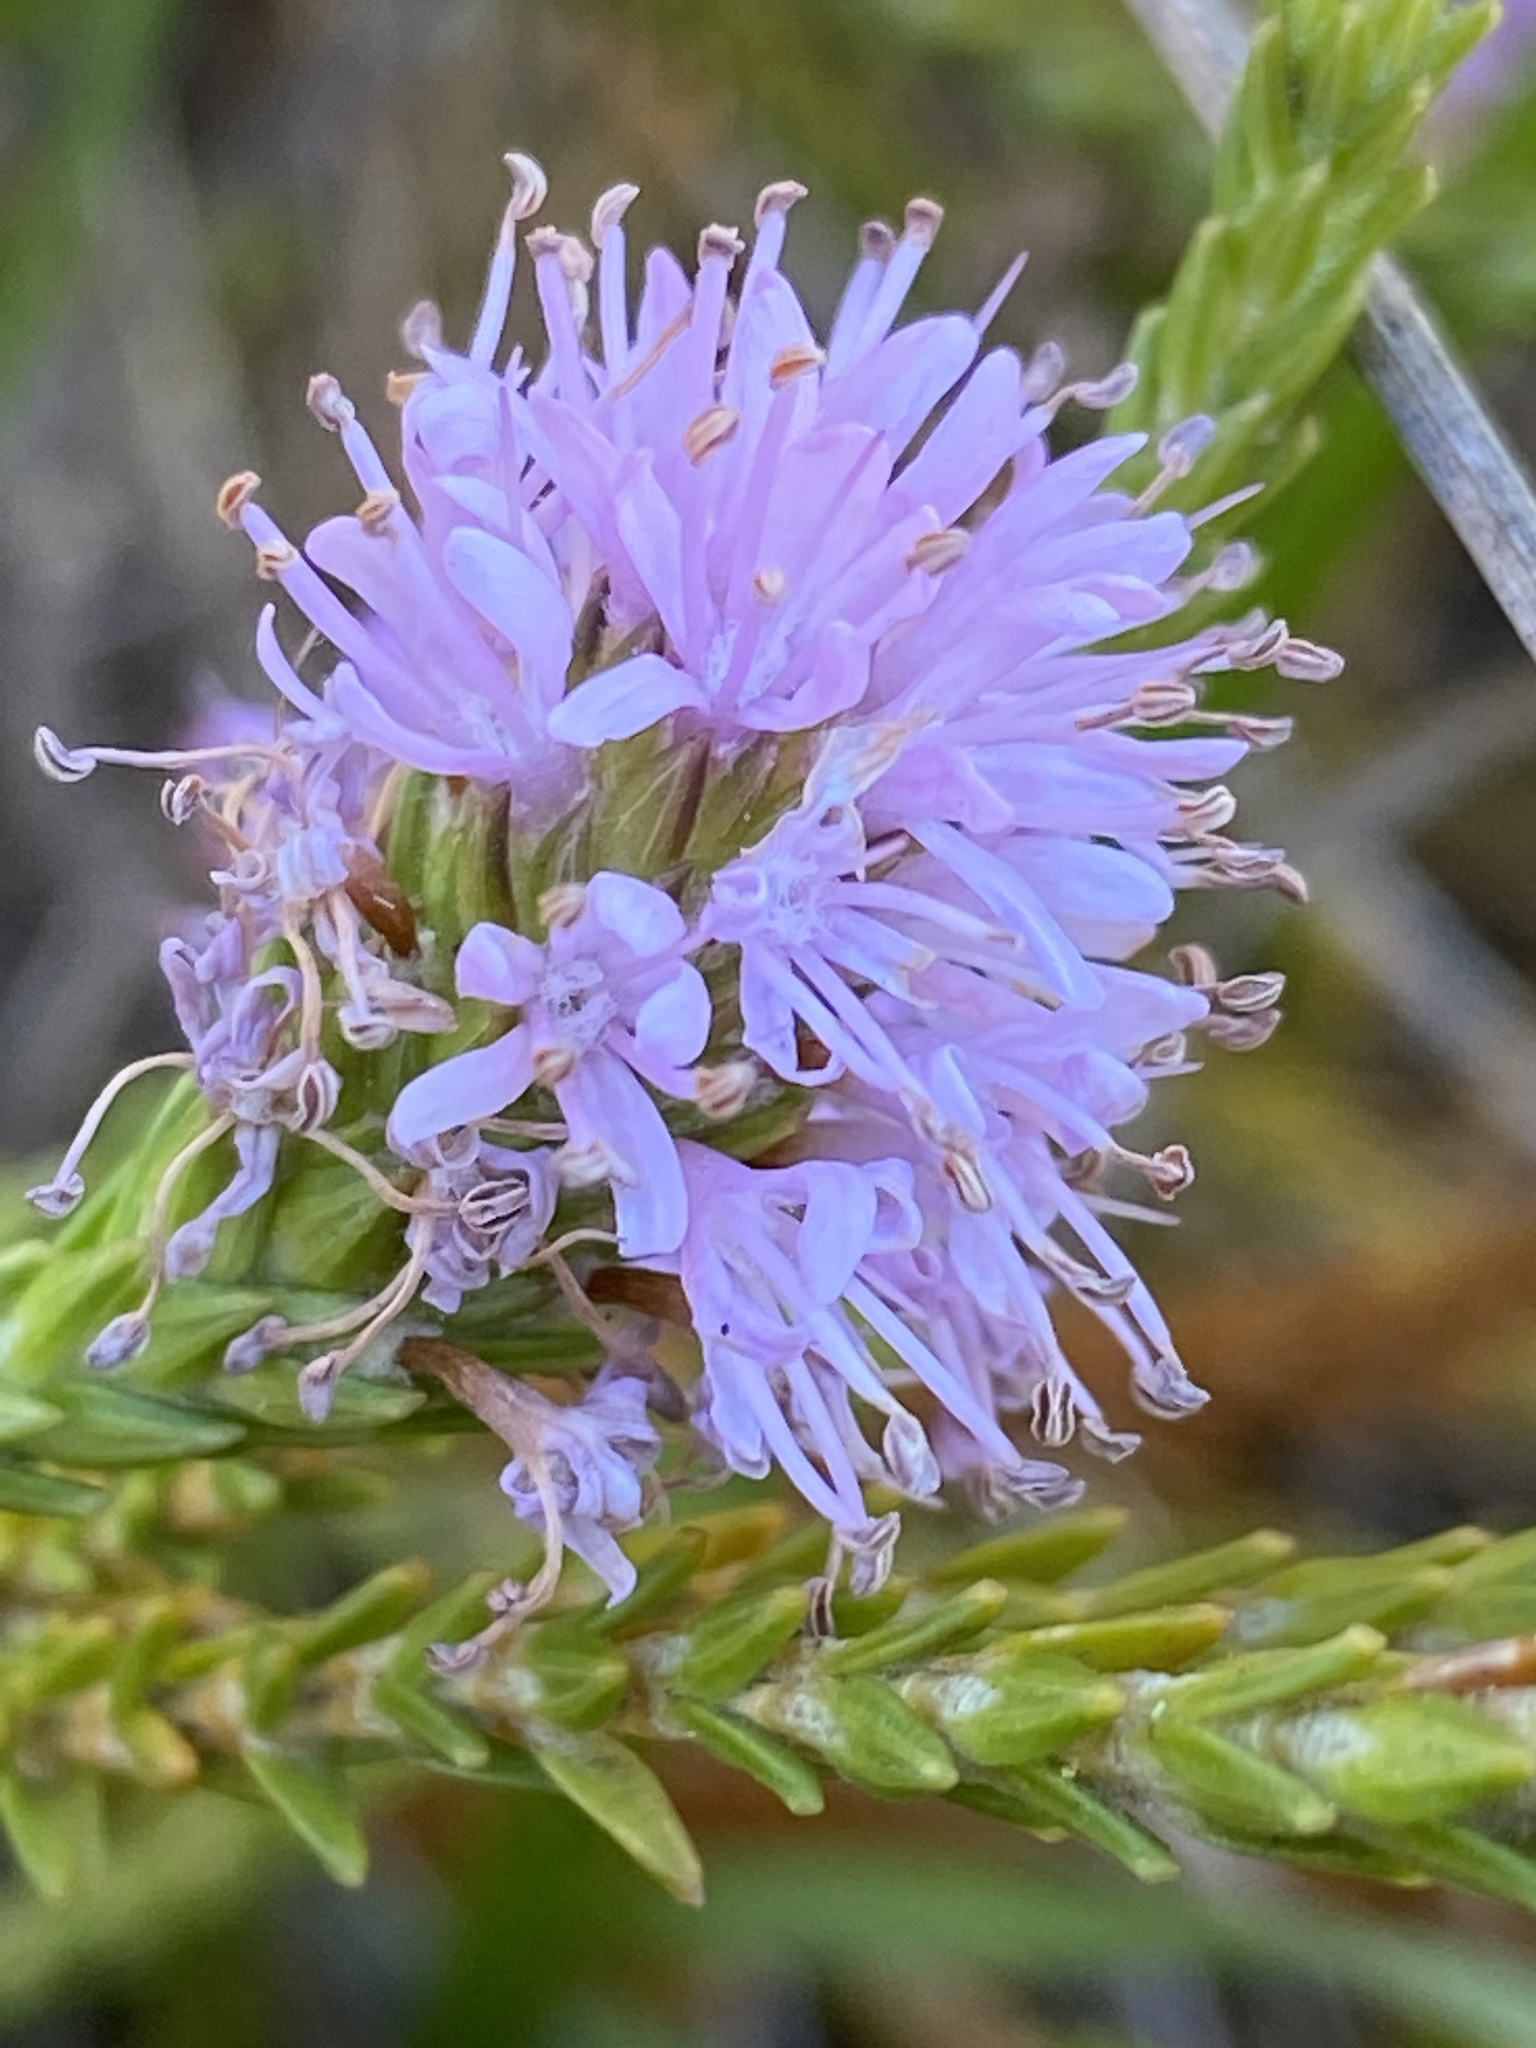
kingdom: Plantae
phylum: Tracheophyta
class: Magnoliopsida
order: Lamiales
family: Stilbaceae
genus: Stilbe
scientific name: Stilbe ericoides
